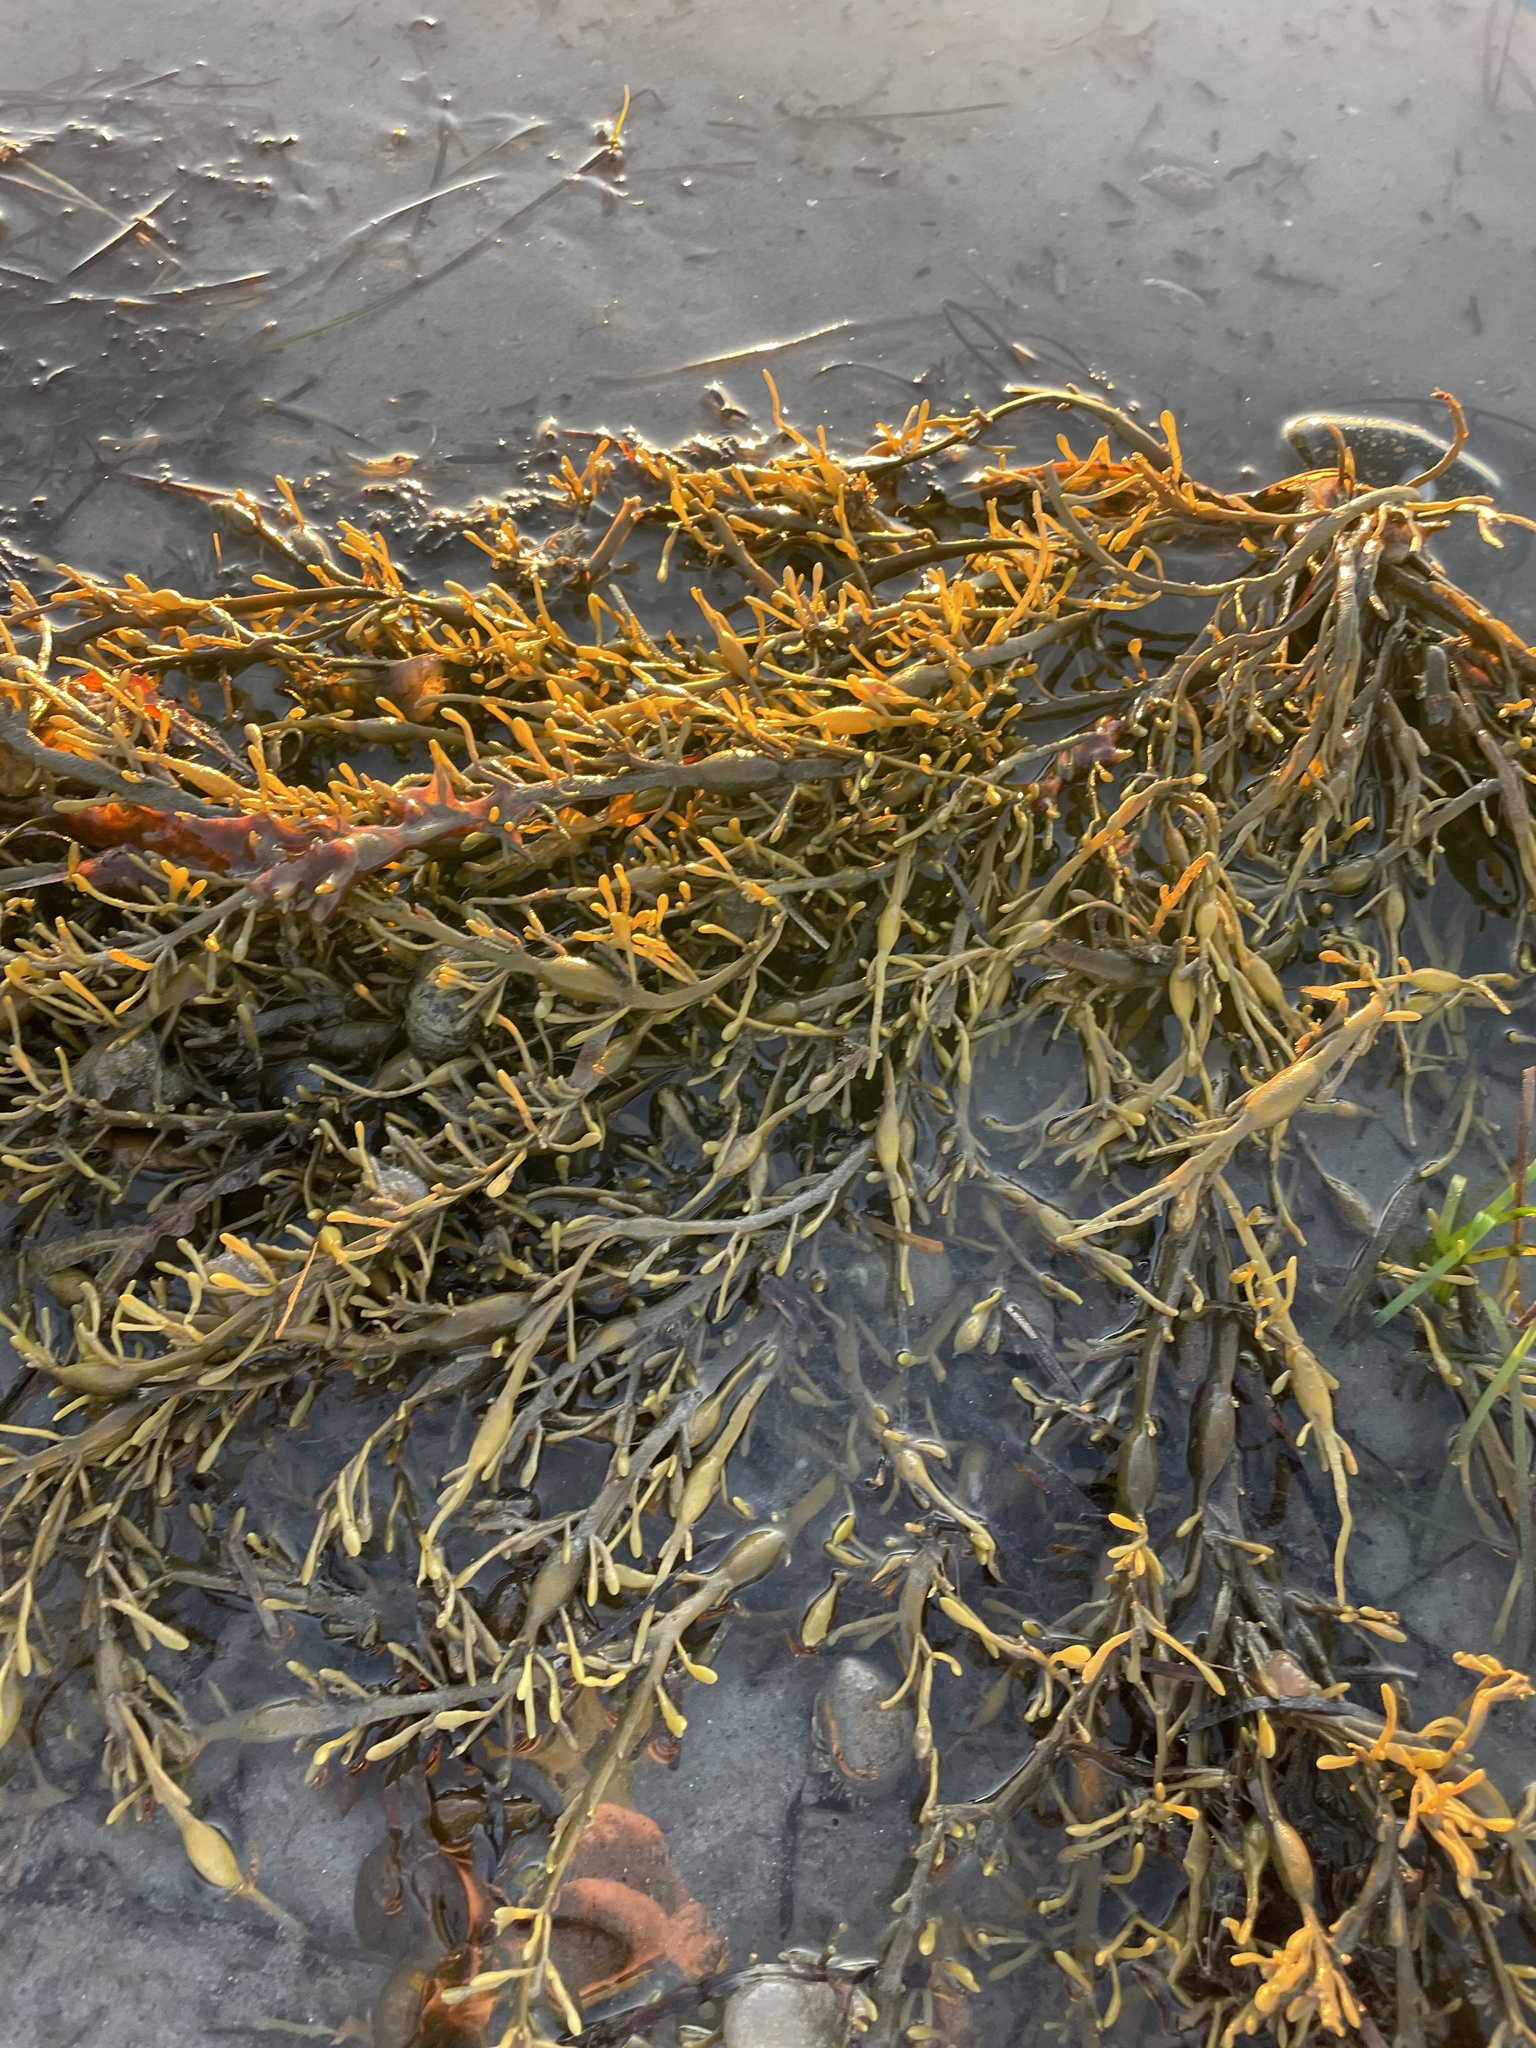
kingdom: Chromista
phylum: Ochrophyta
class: Phaeophyceae
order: Fucales
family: Fucaceae
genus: Ascophyllum
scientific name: Ascophyllum nodosum
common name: Knotted wrack
